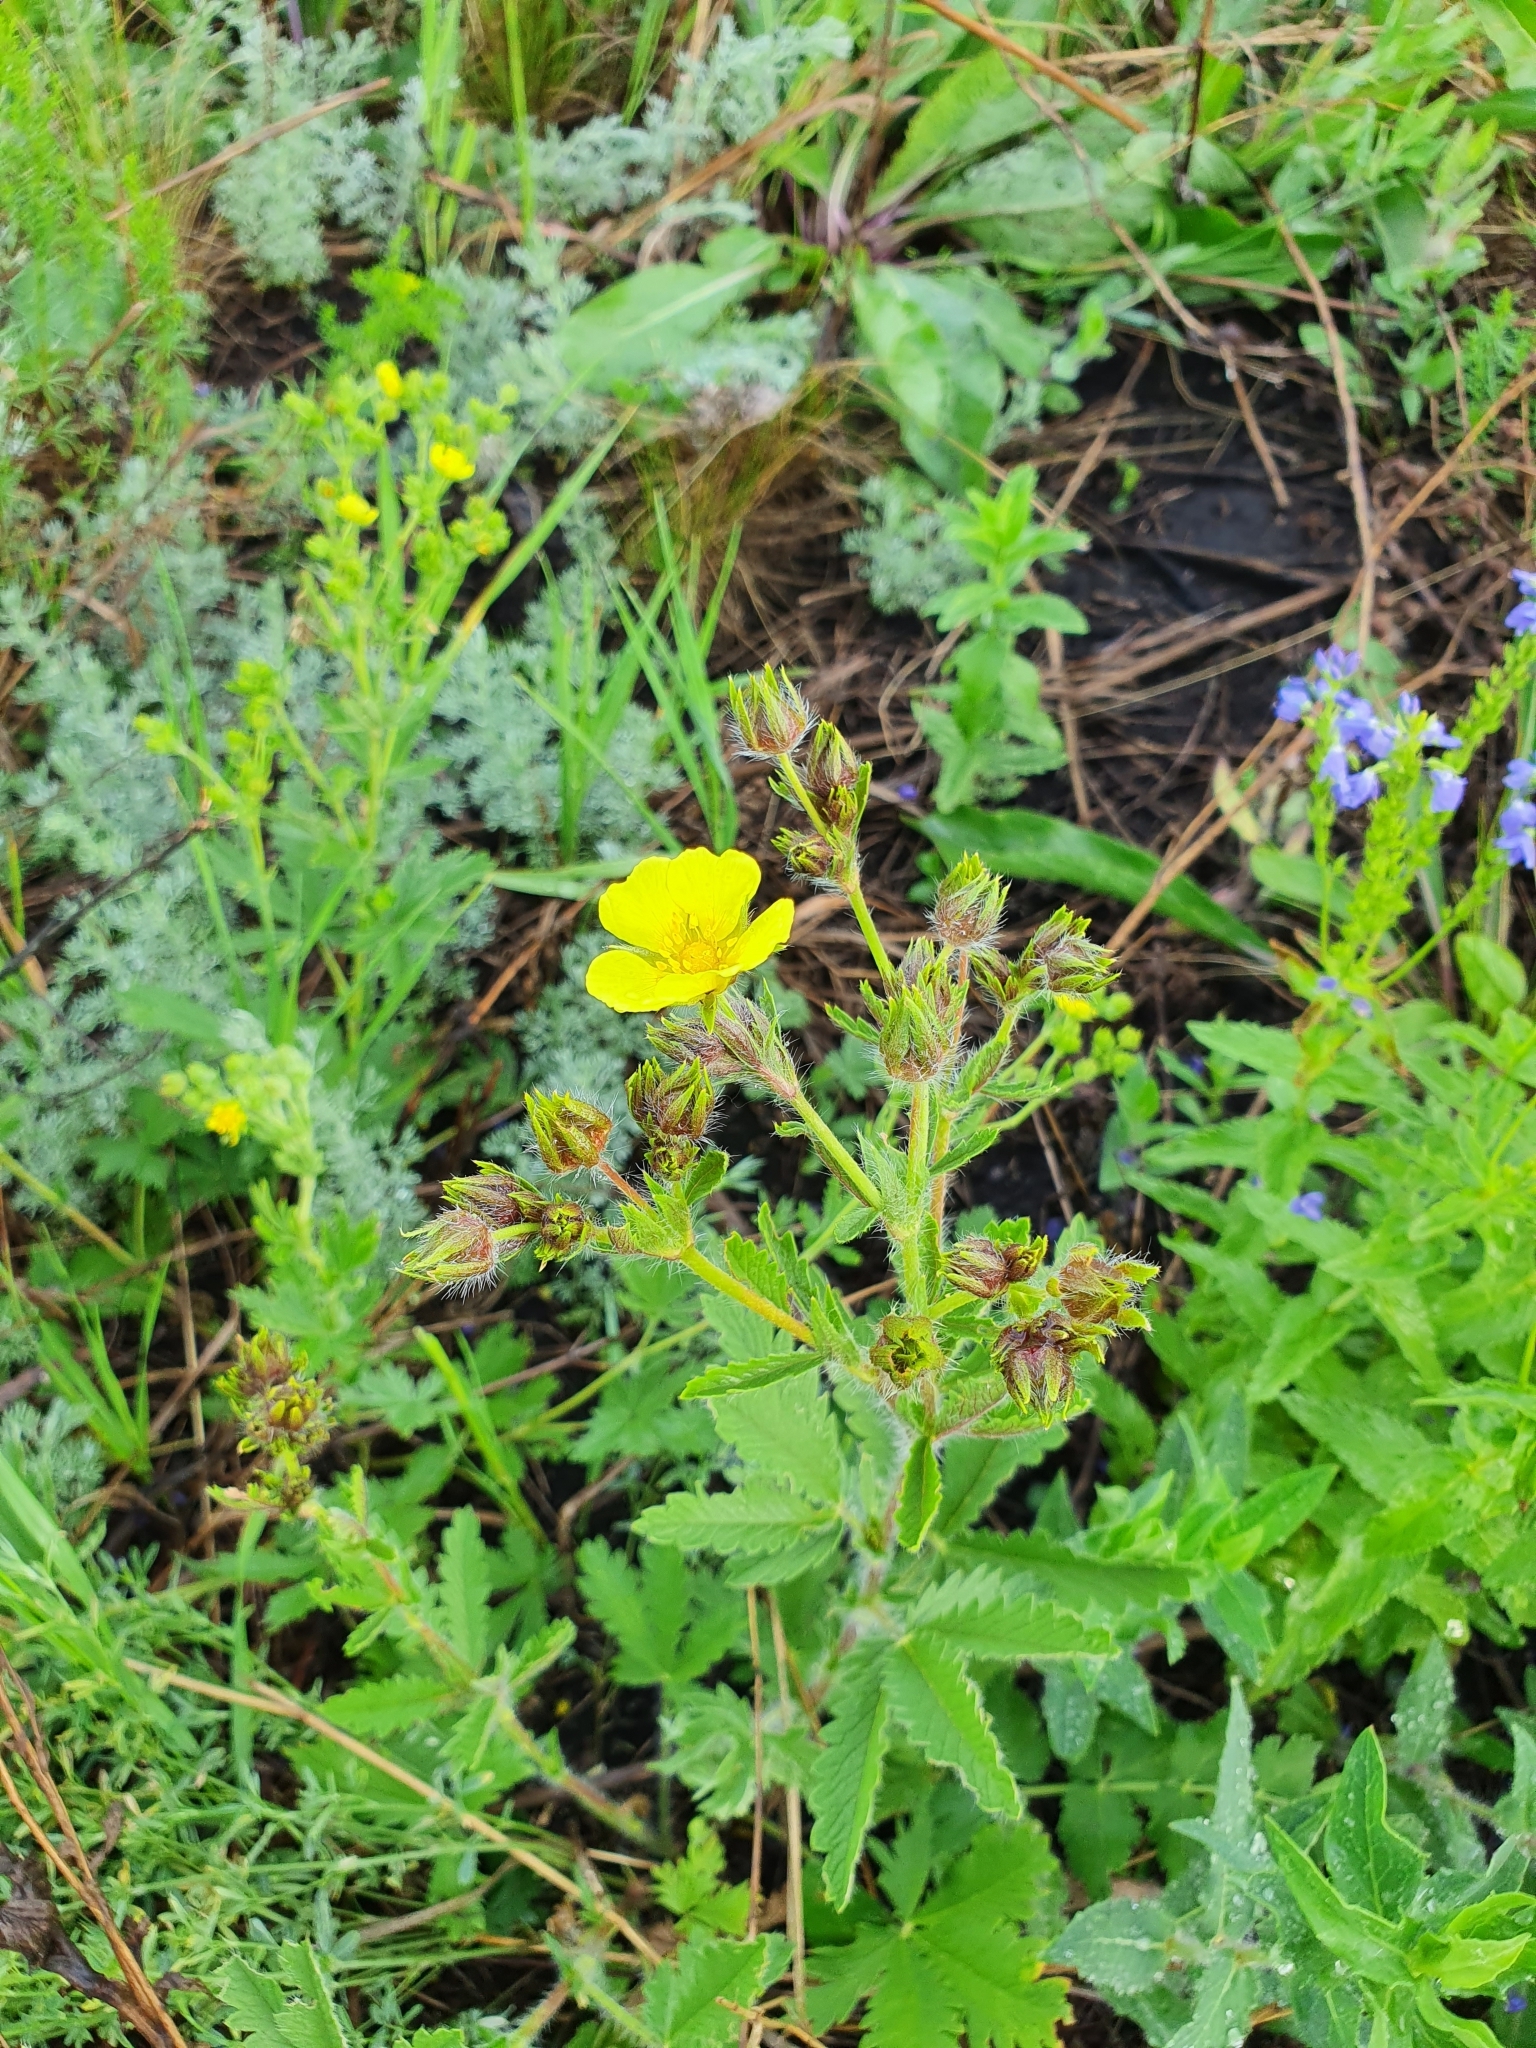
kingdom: Plantae
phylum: Tracheophyta
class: Magnoliopsida
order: Rosales
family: Rosaceae
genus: Potentilla
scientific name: Potentilla recta
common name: Sulphur cinquefoil
